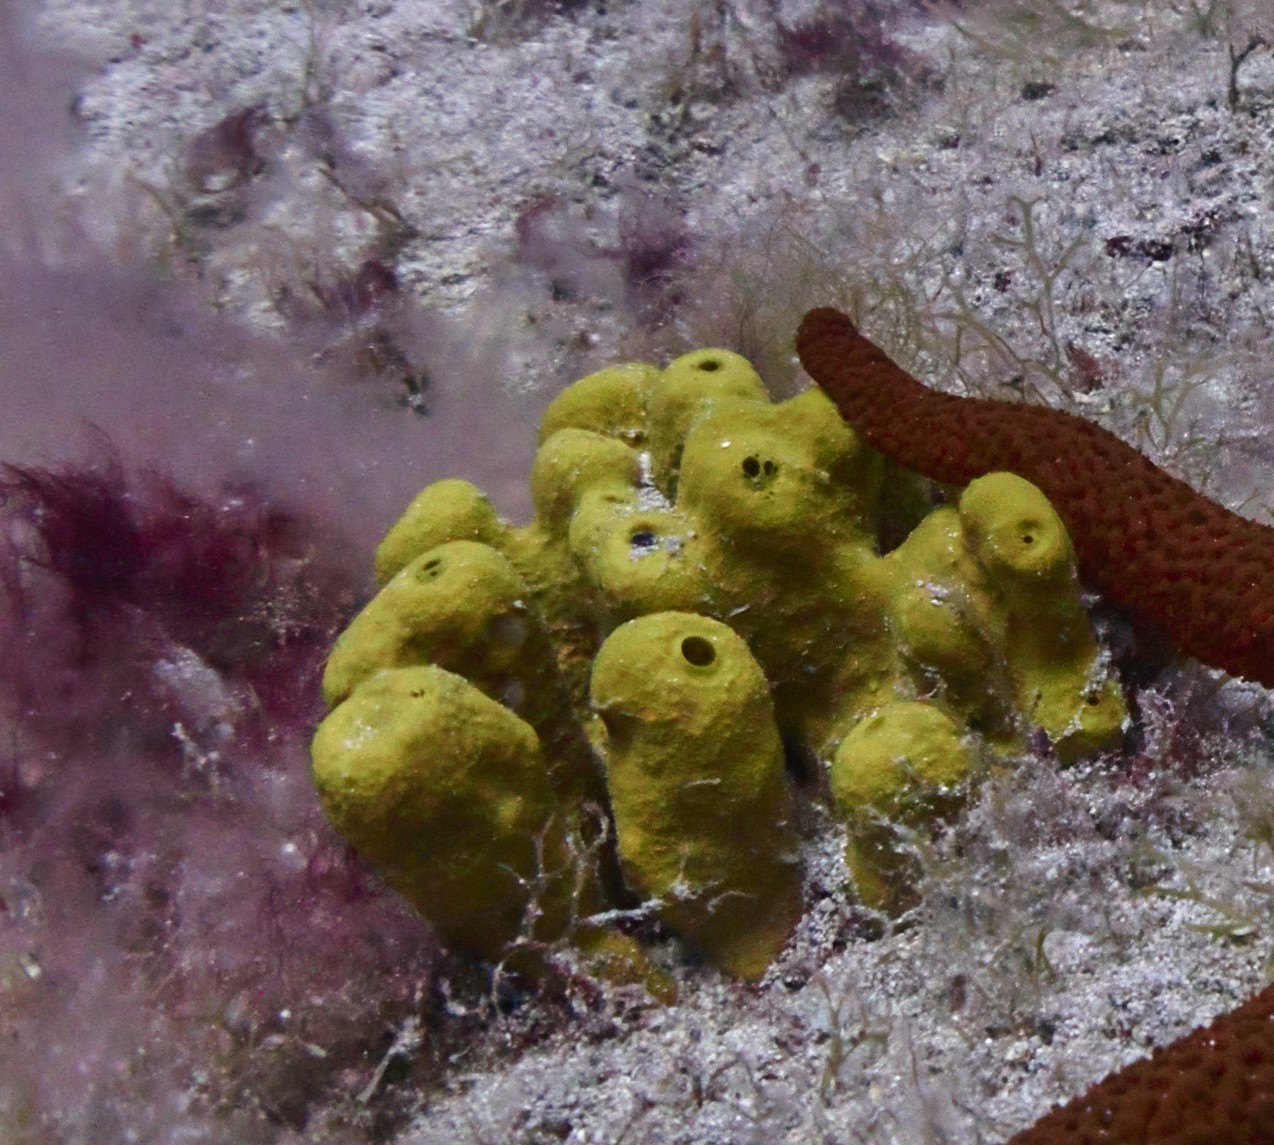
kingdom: Animalia
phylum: Porifera
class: Demospongiae
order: Verongiida
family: Aplysinidae
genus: Aplysina
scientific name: Aplysina aerophoba
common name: Aureate sponge
